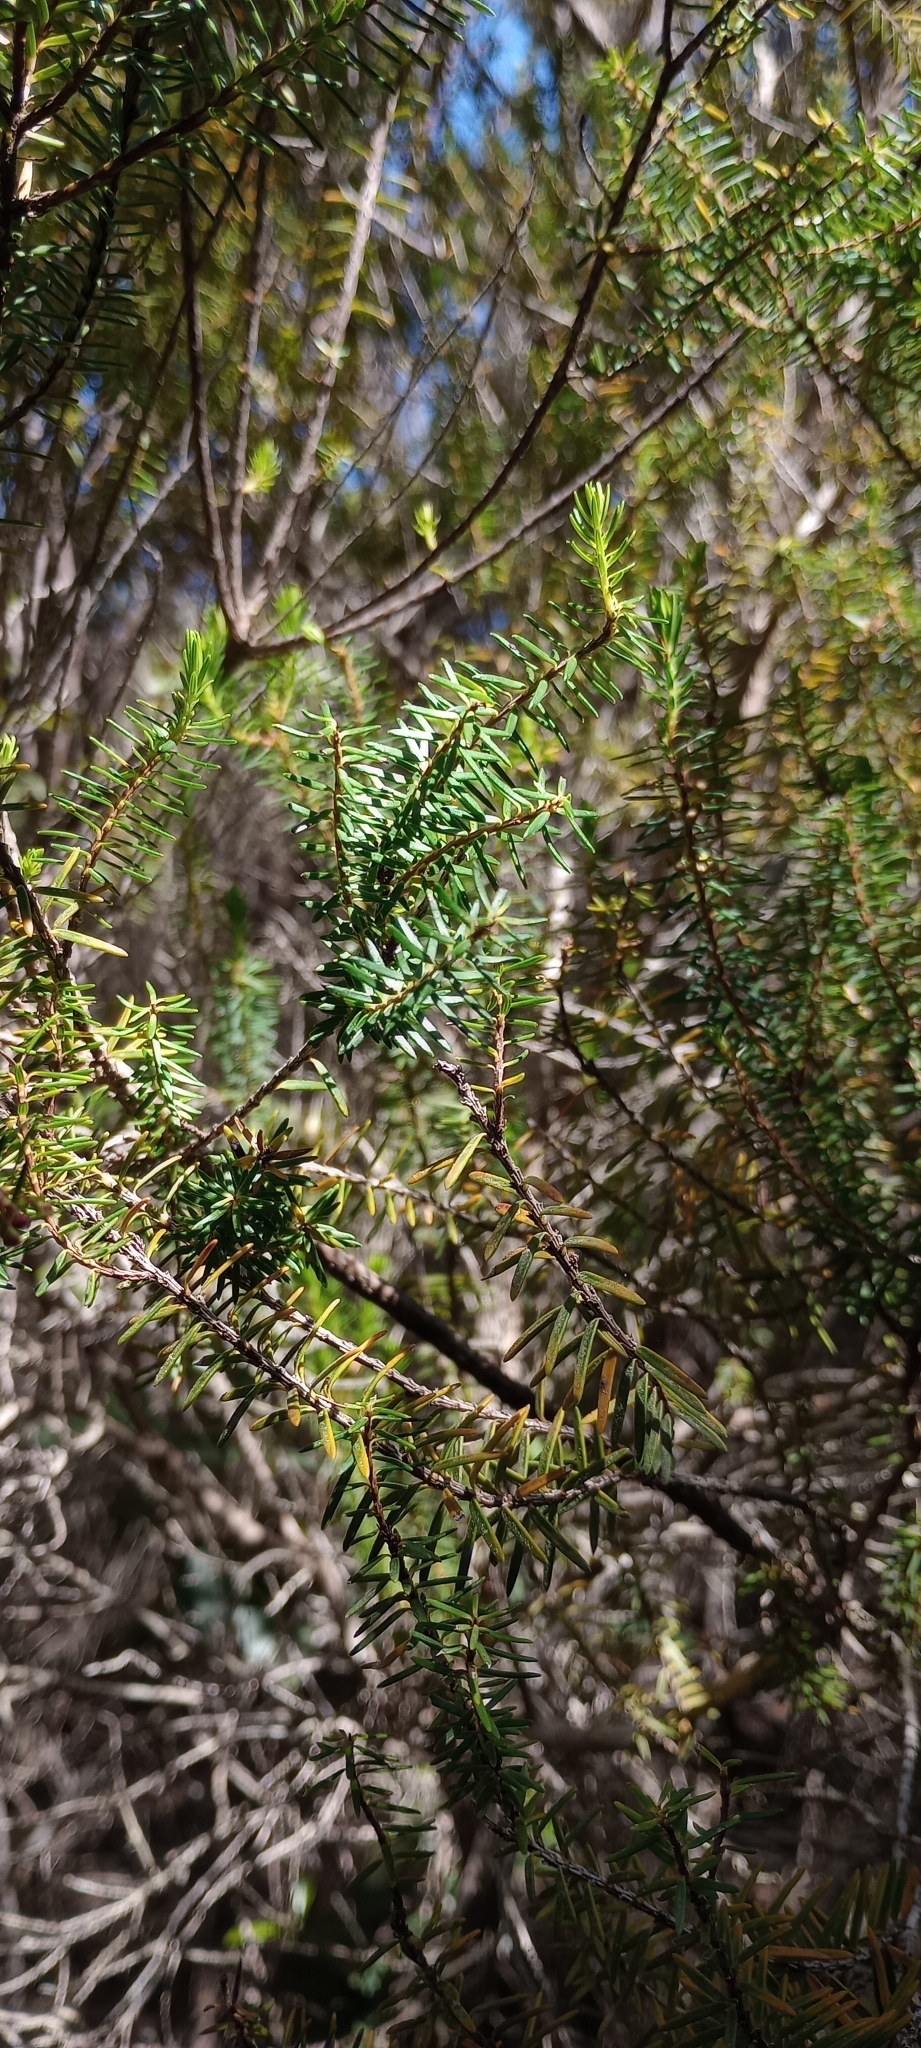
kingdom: Plantae
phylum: Tracheophyta
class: Magnoliopsida
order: Ericales
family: Ericaceae
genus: Erica
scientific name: Erica platycodon
